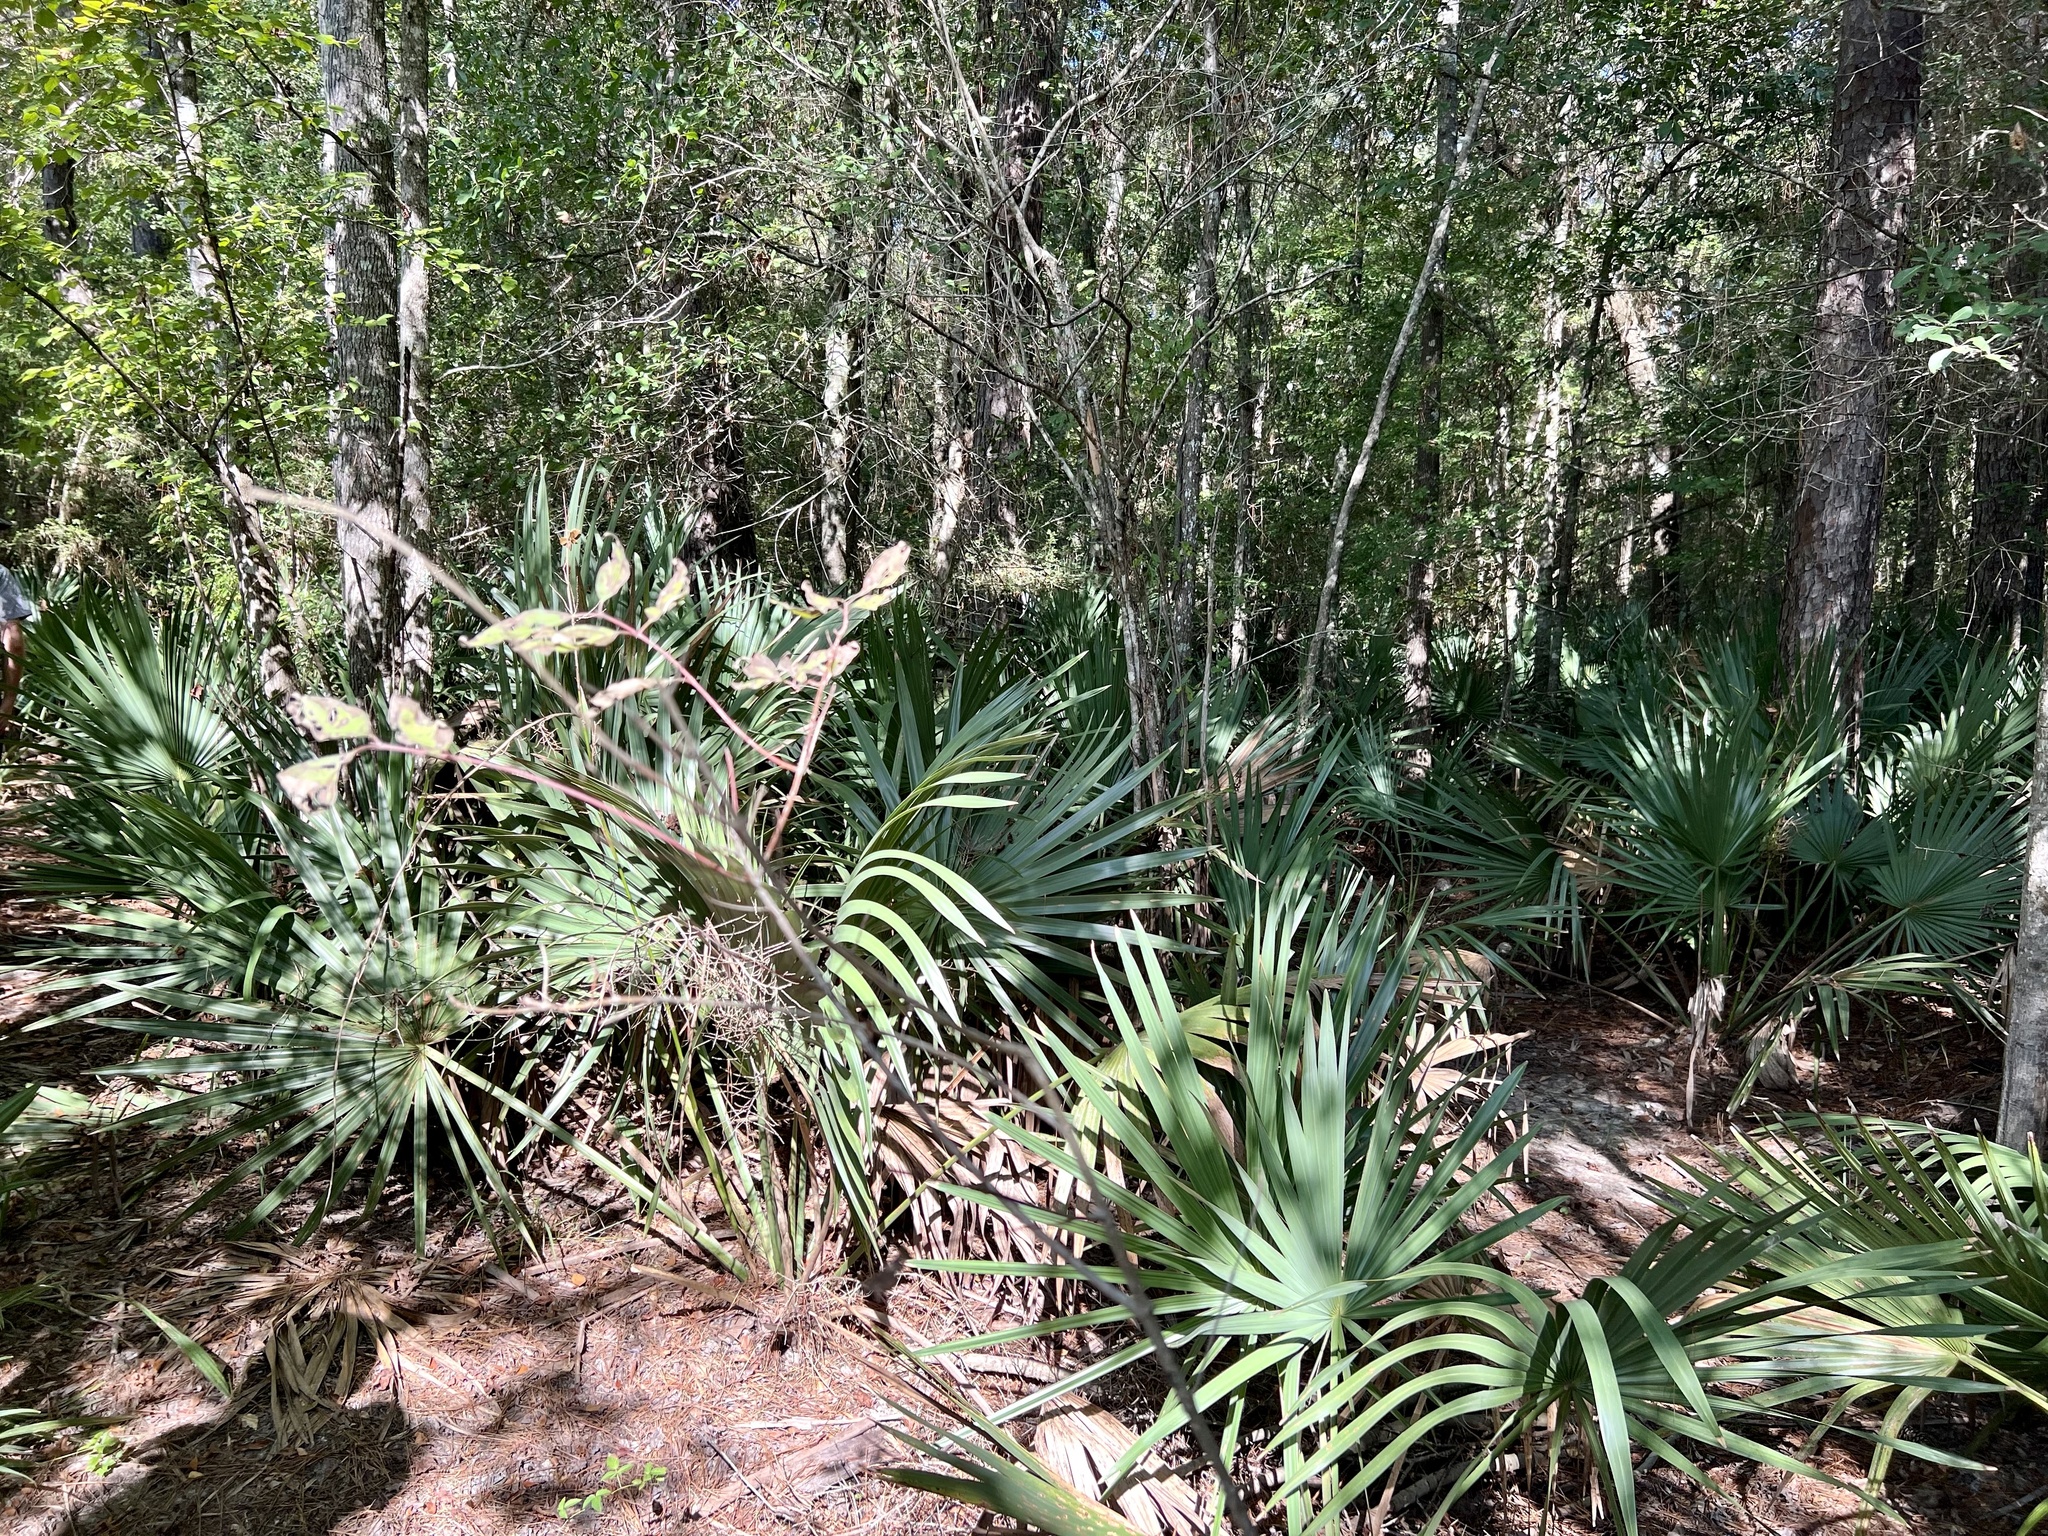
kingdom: Plantae
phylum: Tracheophyta
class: Liliopsida
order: Arecales
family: Arecaceae
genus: Sabal
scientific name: Sabal minor
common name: Dwarf palmetto
